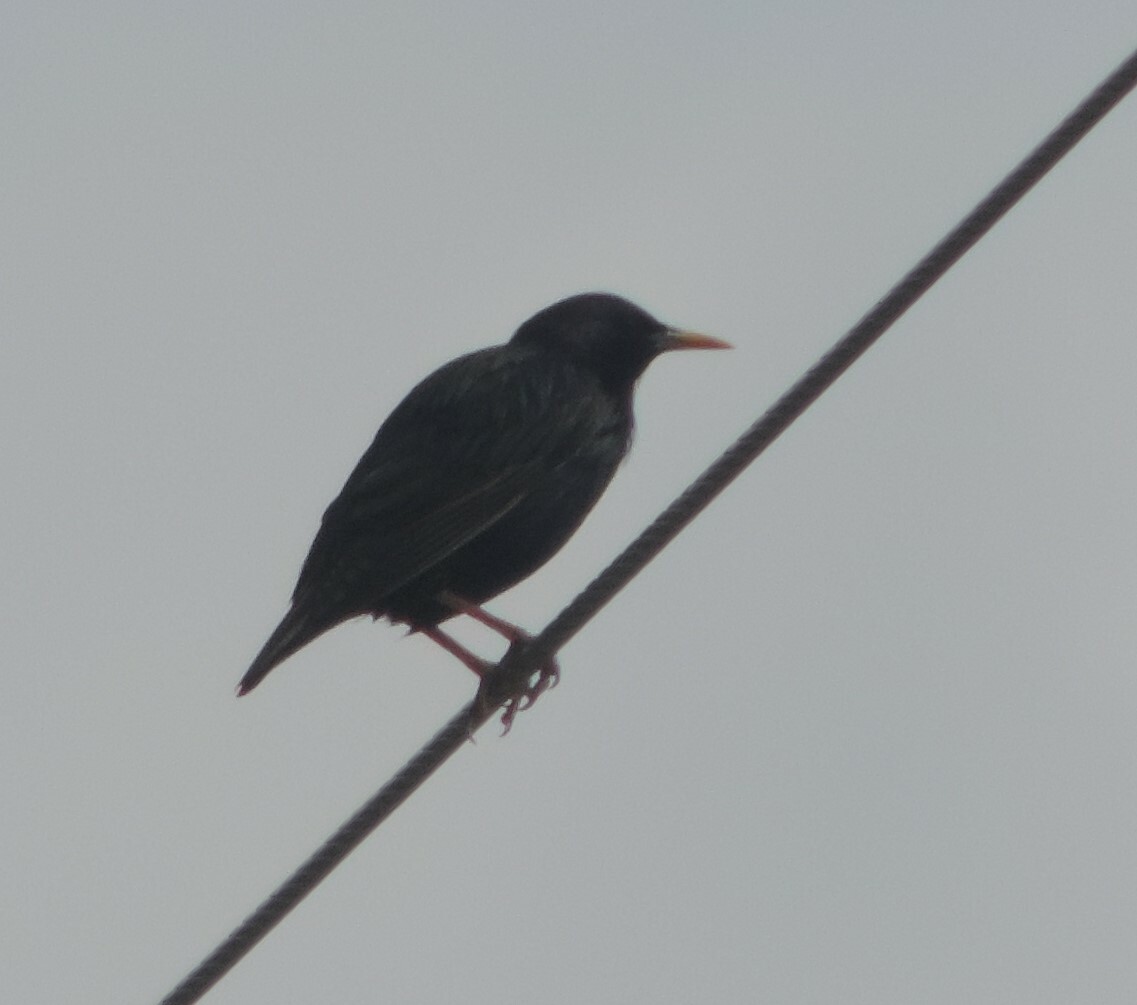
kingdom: Animalia
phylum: Chordata
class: Aves
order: Passeriformes
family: Sturnidae
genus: Sturnus
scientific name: Sturnus vulgaris
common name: Common starling
